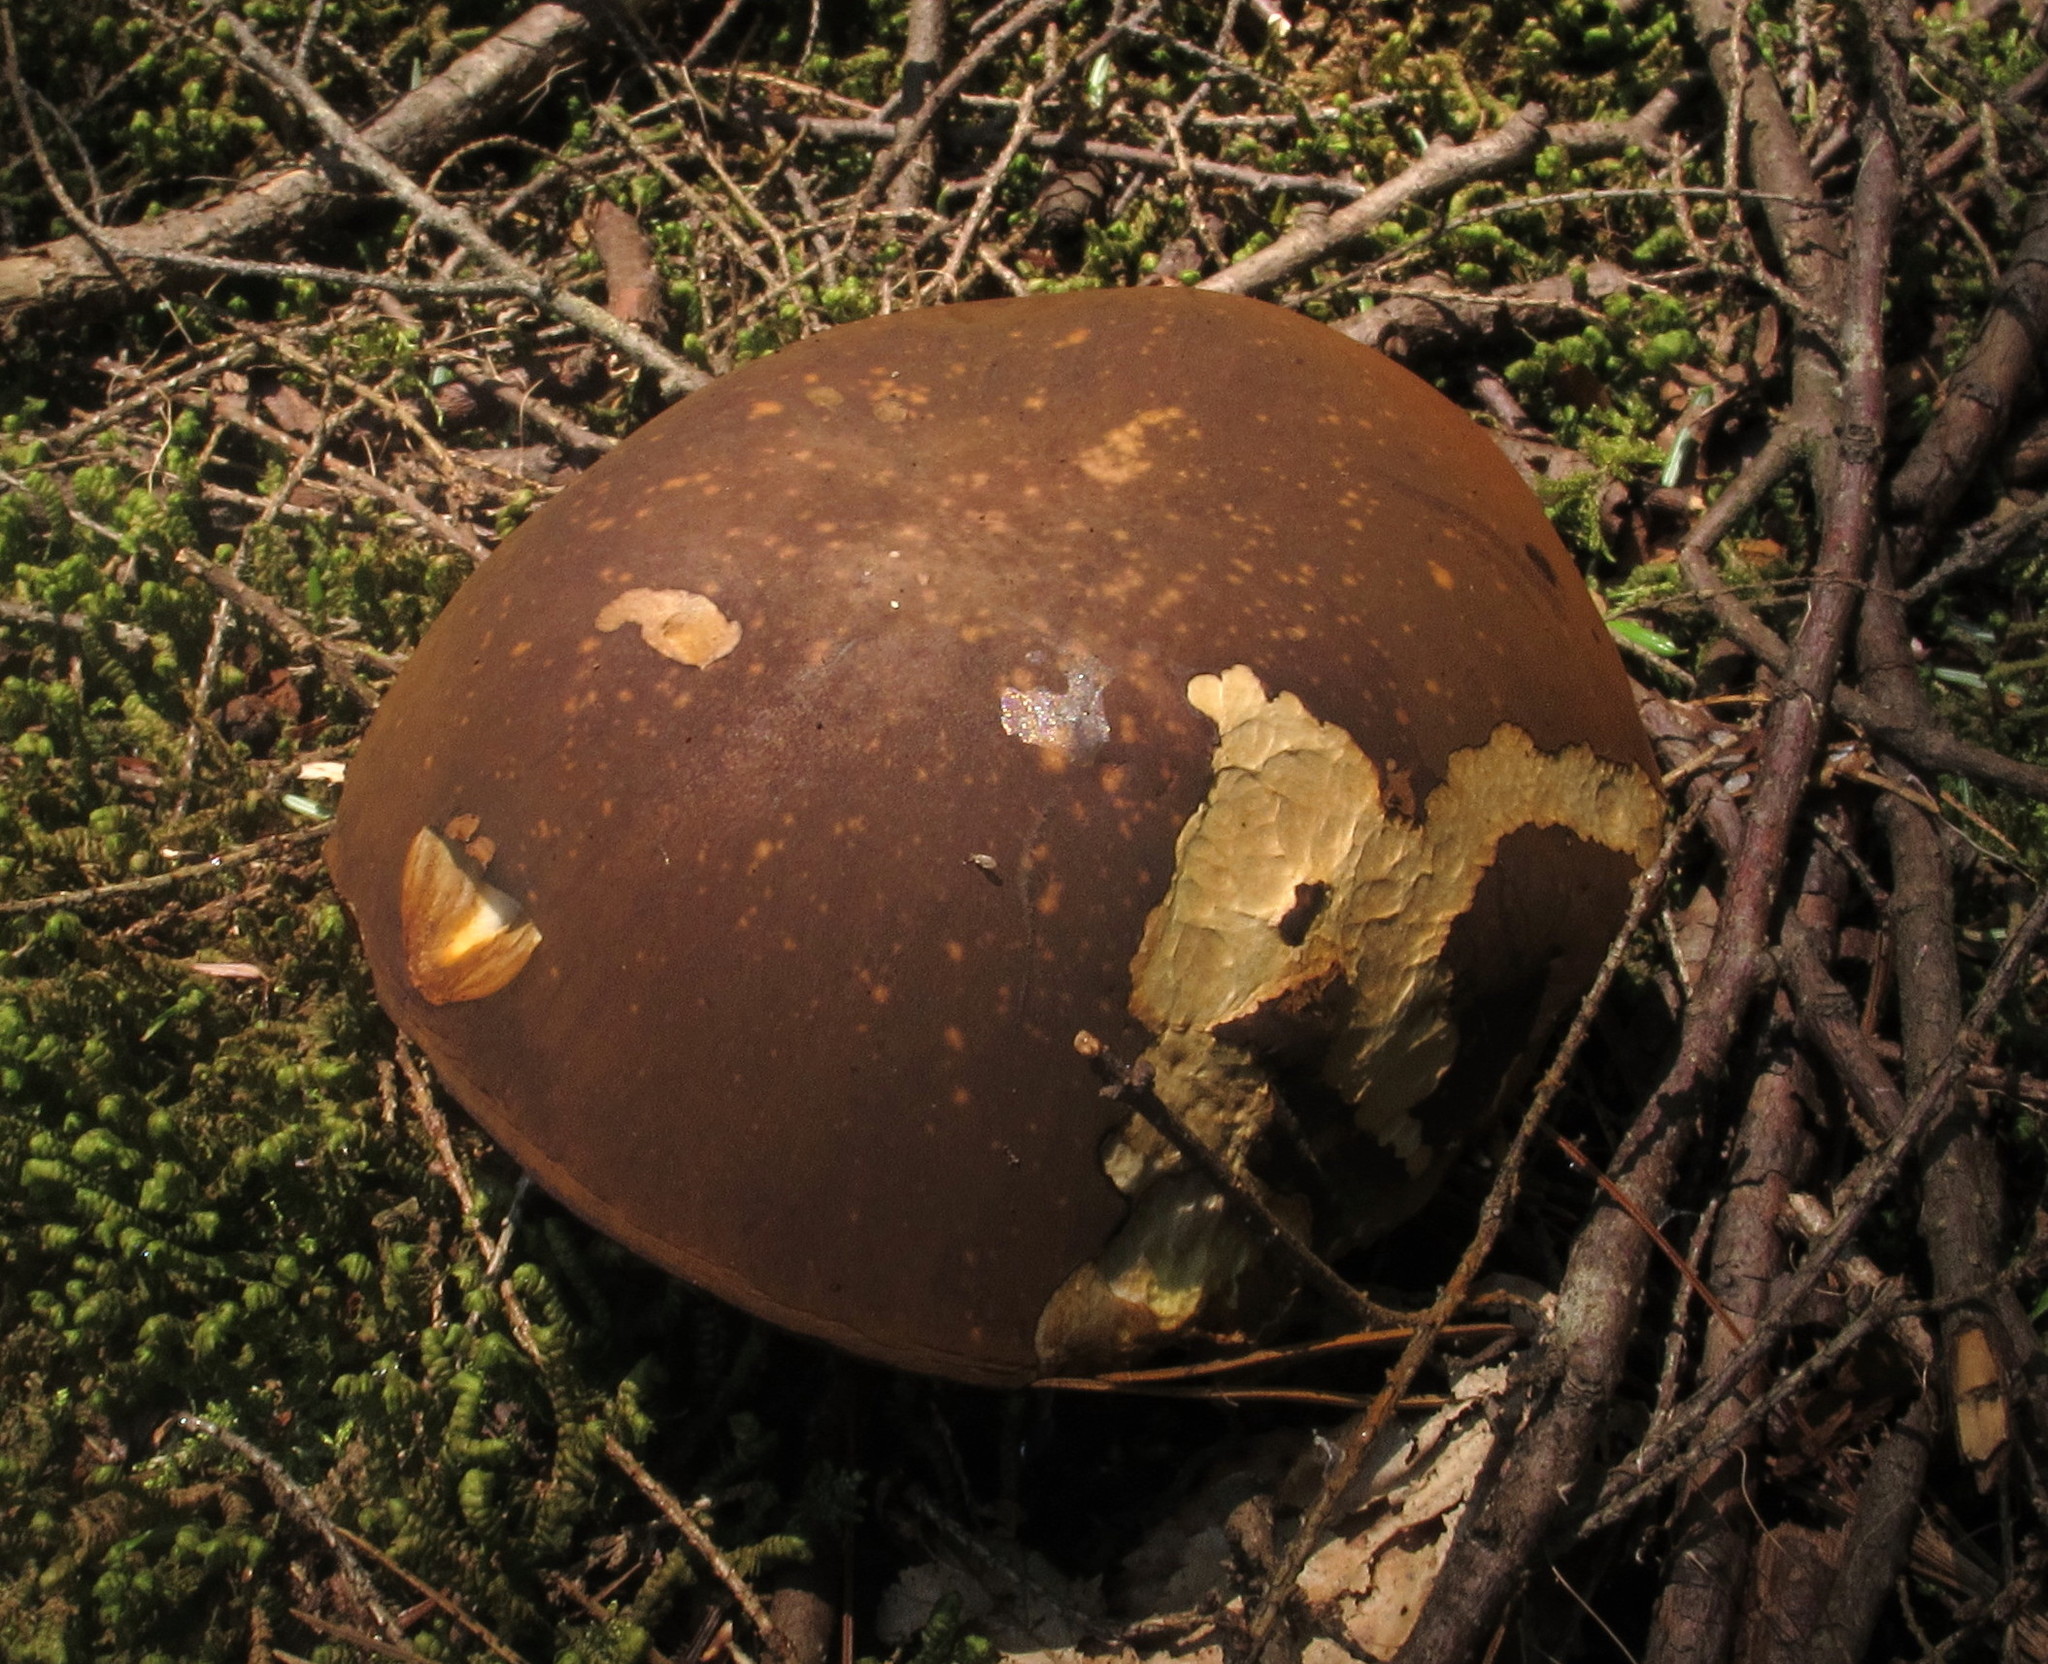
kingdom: Fungi
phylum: Basidiomycota
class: Agaricomycetes
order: Boletales
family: Boletaceae
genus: Xanthoconium
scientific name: Xanthoconium affine
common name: Spotted bolete
